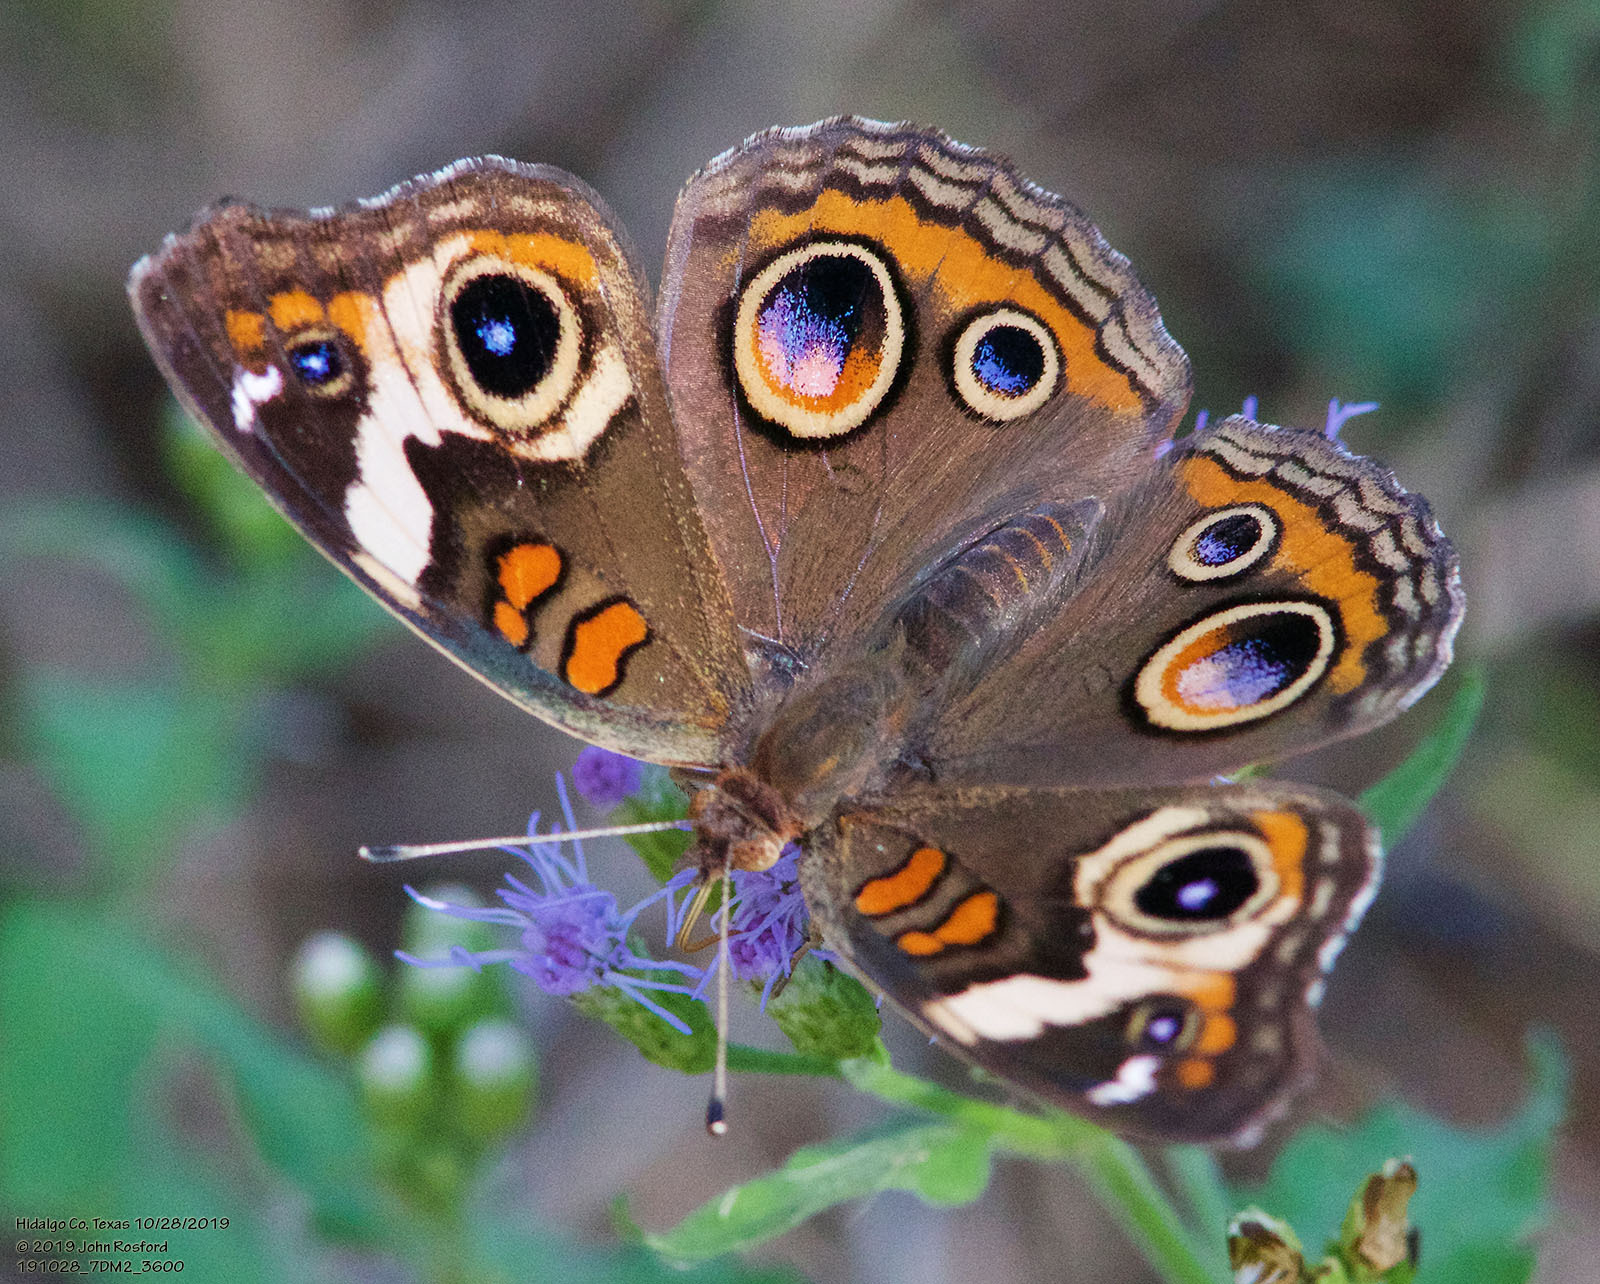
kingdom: Animalia
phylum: Arthropoda
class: Insecta
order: Lepidoptera
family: Nymphalidae
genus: Junonia
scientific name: Junonia coenia
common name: Common buckeye
